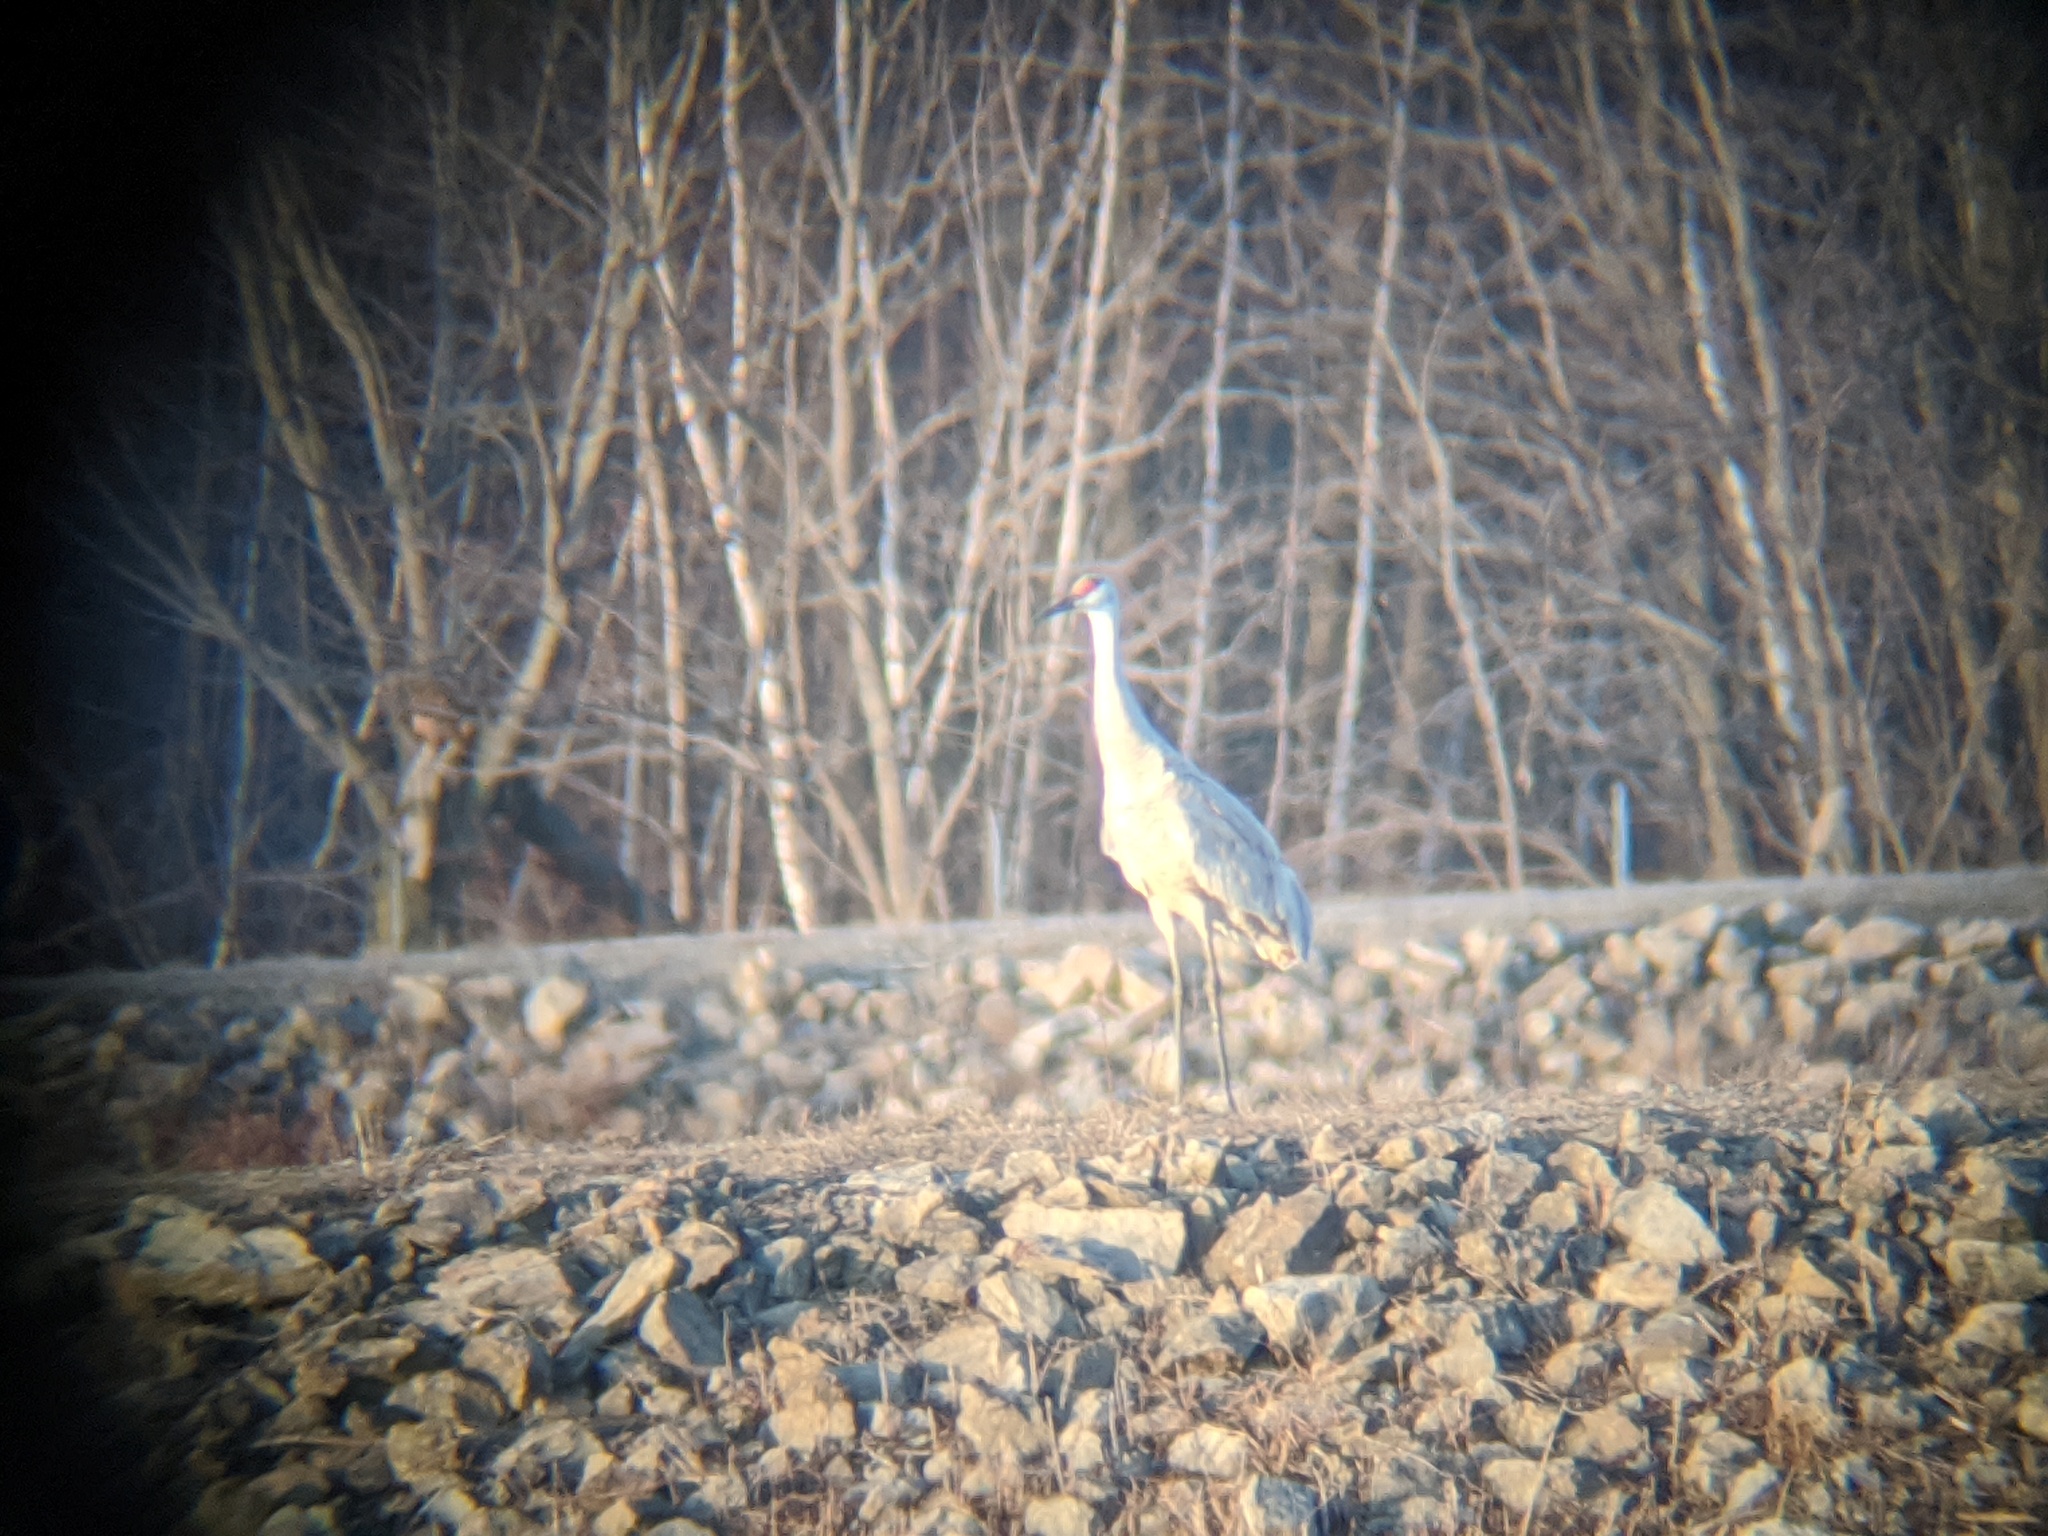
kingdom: Animalia
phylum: Chordata
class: Aves
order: Gruiformes
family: Gruidae
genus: Grus
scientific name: Grus canadensis
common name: Sandhill crane
